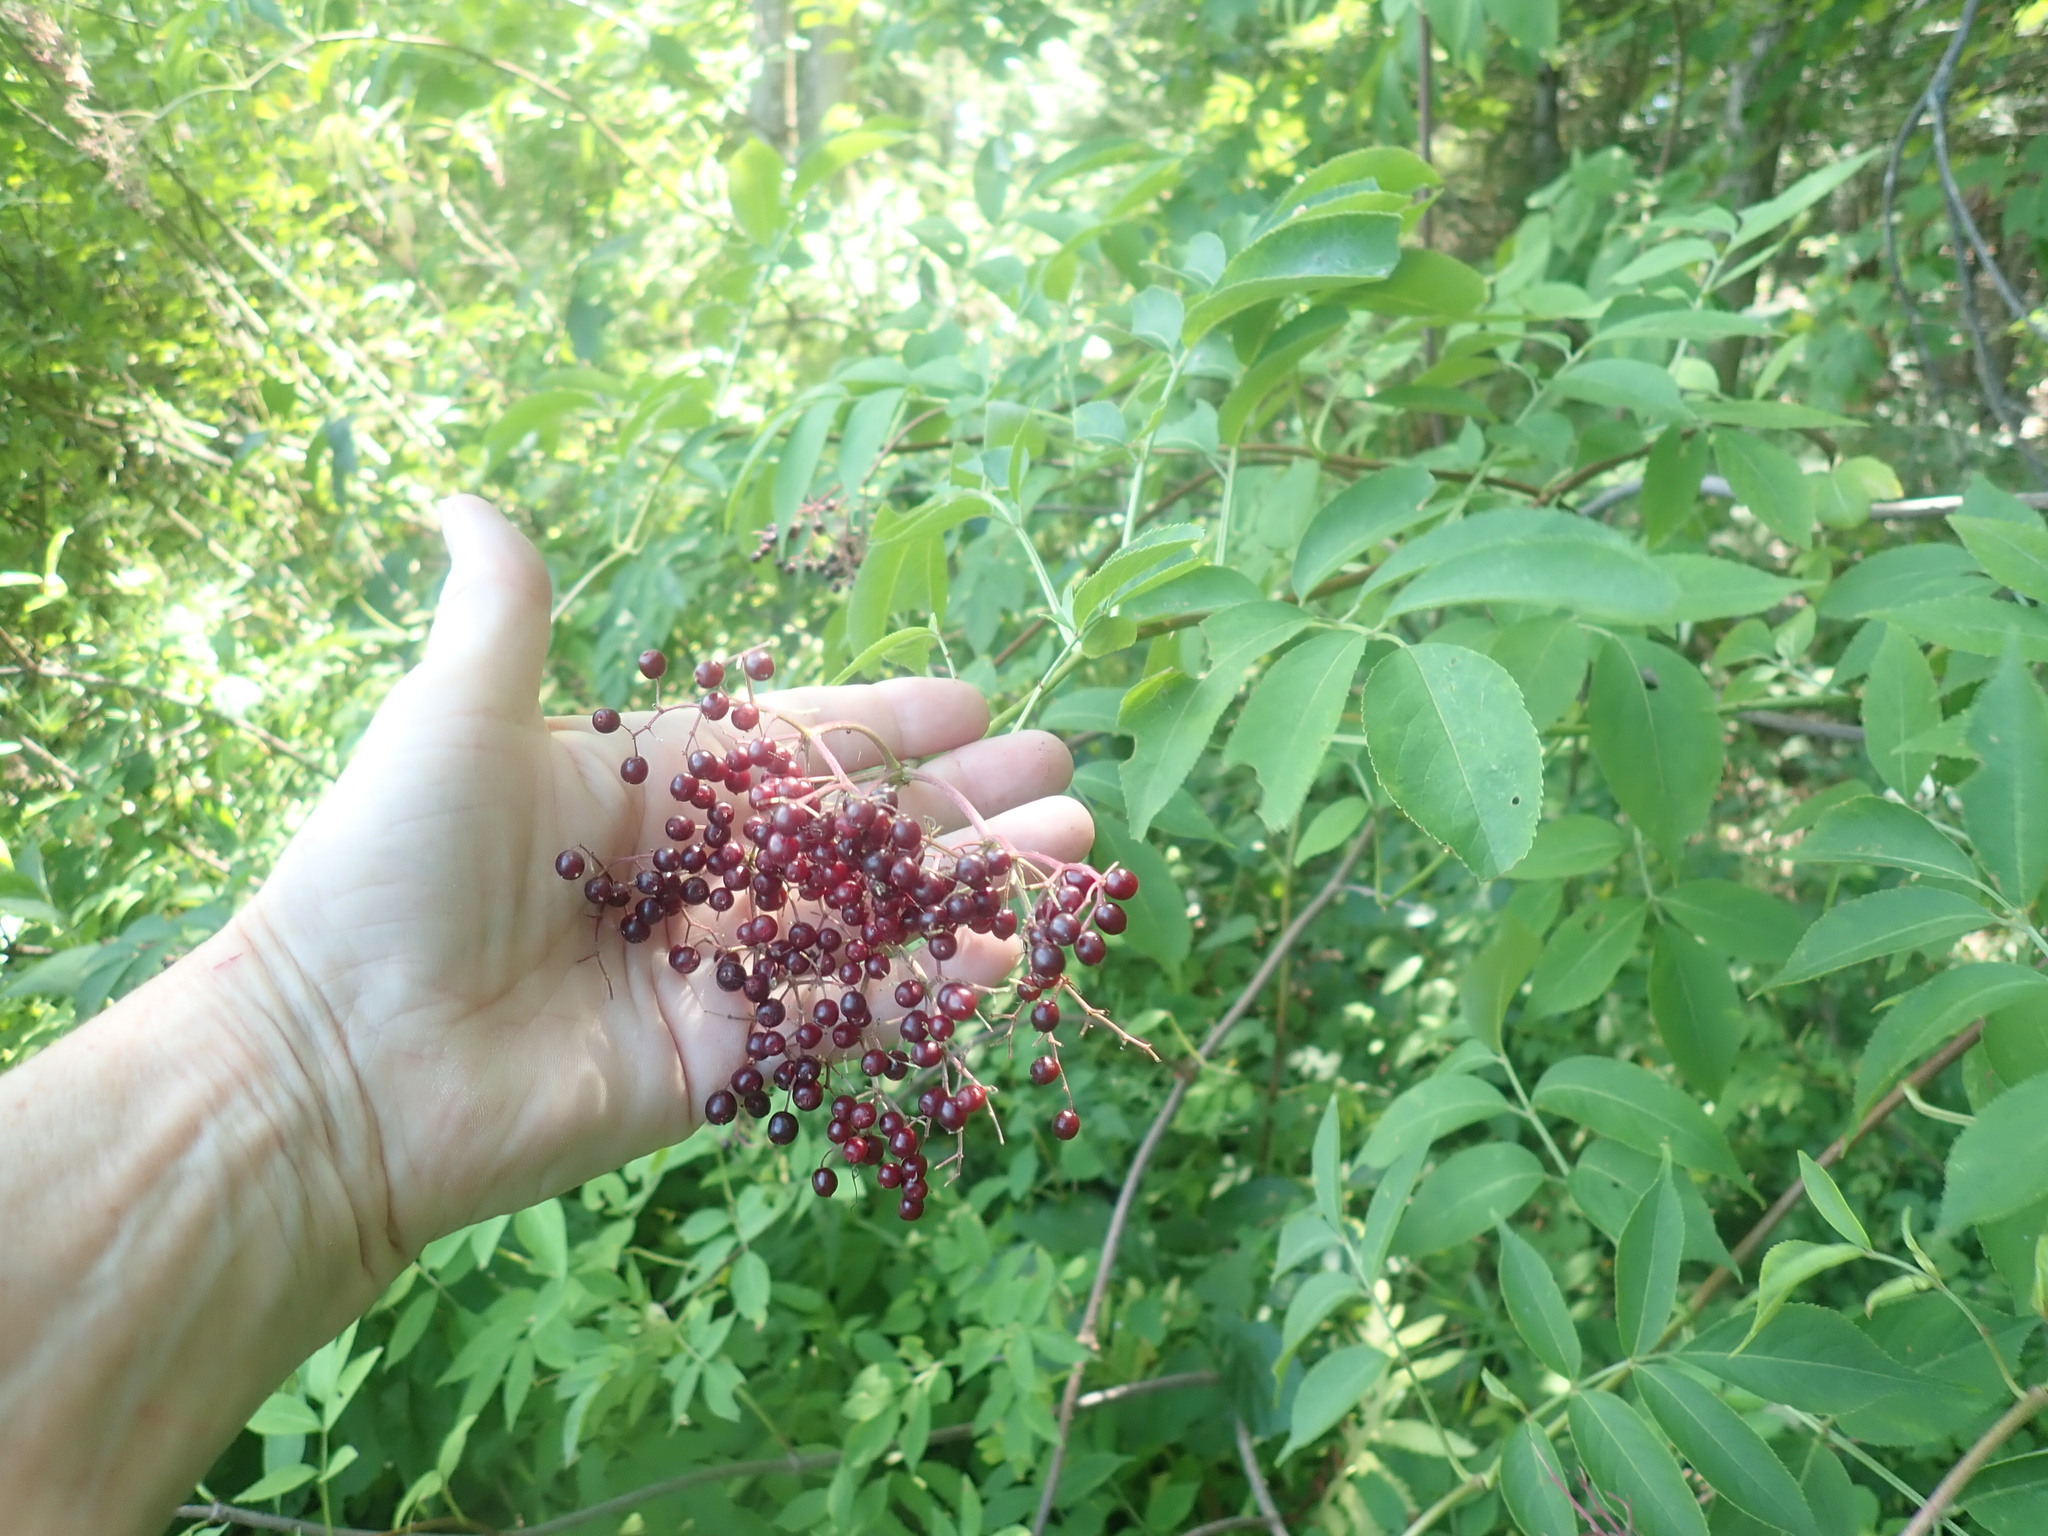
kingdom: Plantae
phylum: Tracheophyta
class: Magnoliopsida
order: Dipsacales
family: Viburnaceae
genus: Sambucus
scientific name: Sambucus canadensis
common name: American elder
